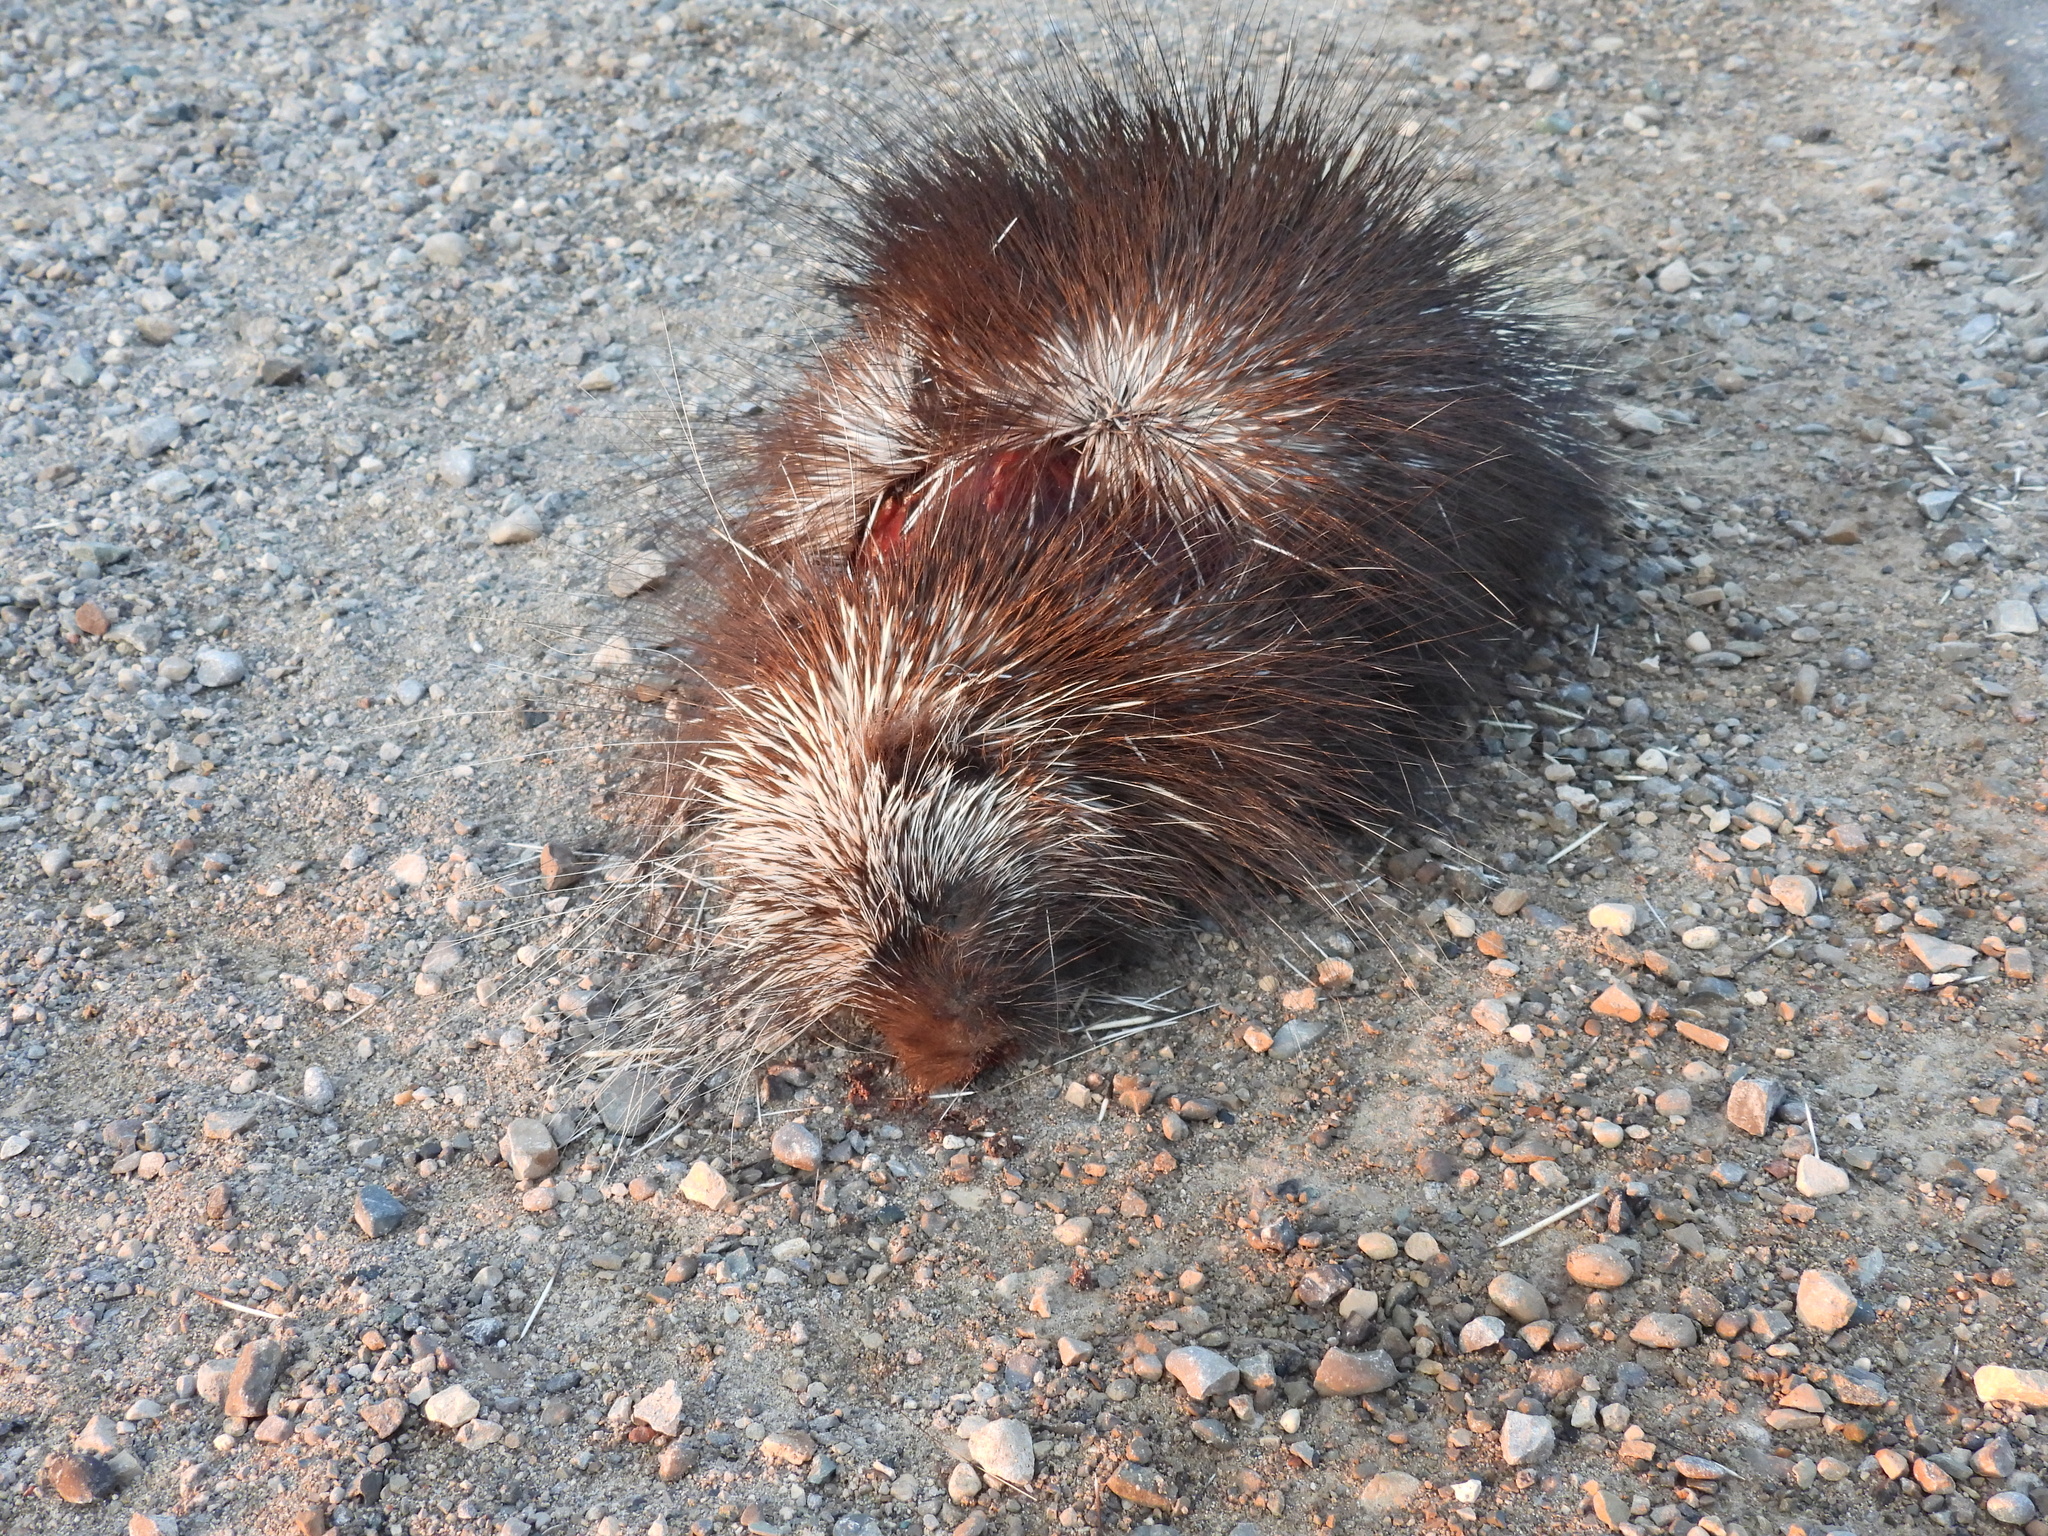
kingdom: Animalia
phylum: Chordata
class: Mammalia
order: Rodentia
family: Erethizontidae
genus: Erethizon
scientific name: Erethizon dorsatus
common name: North american porcupine
